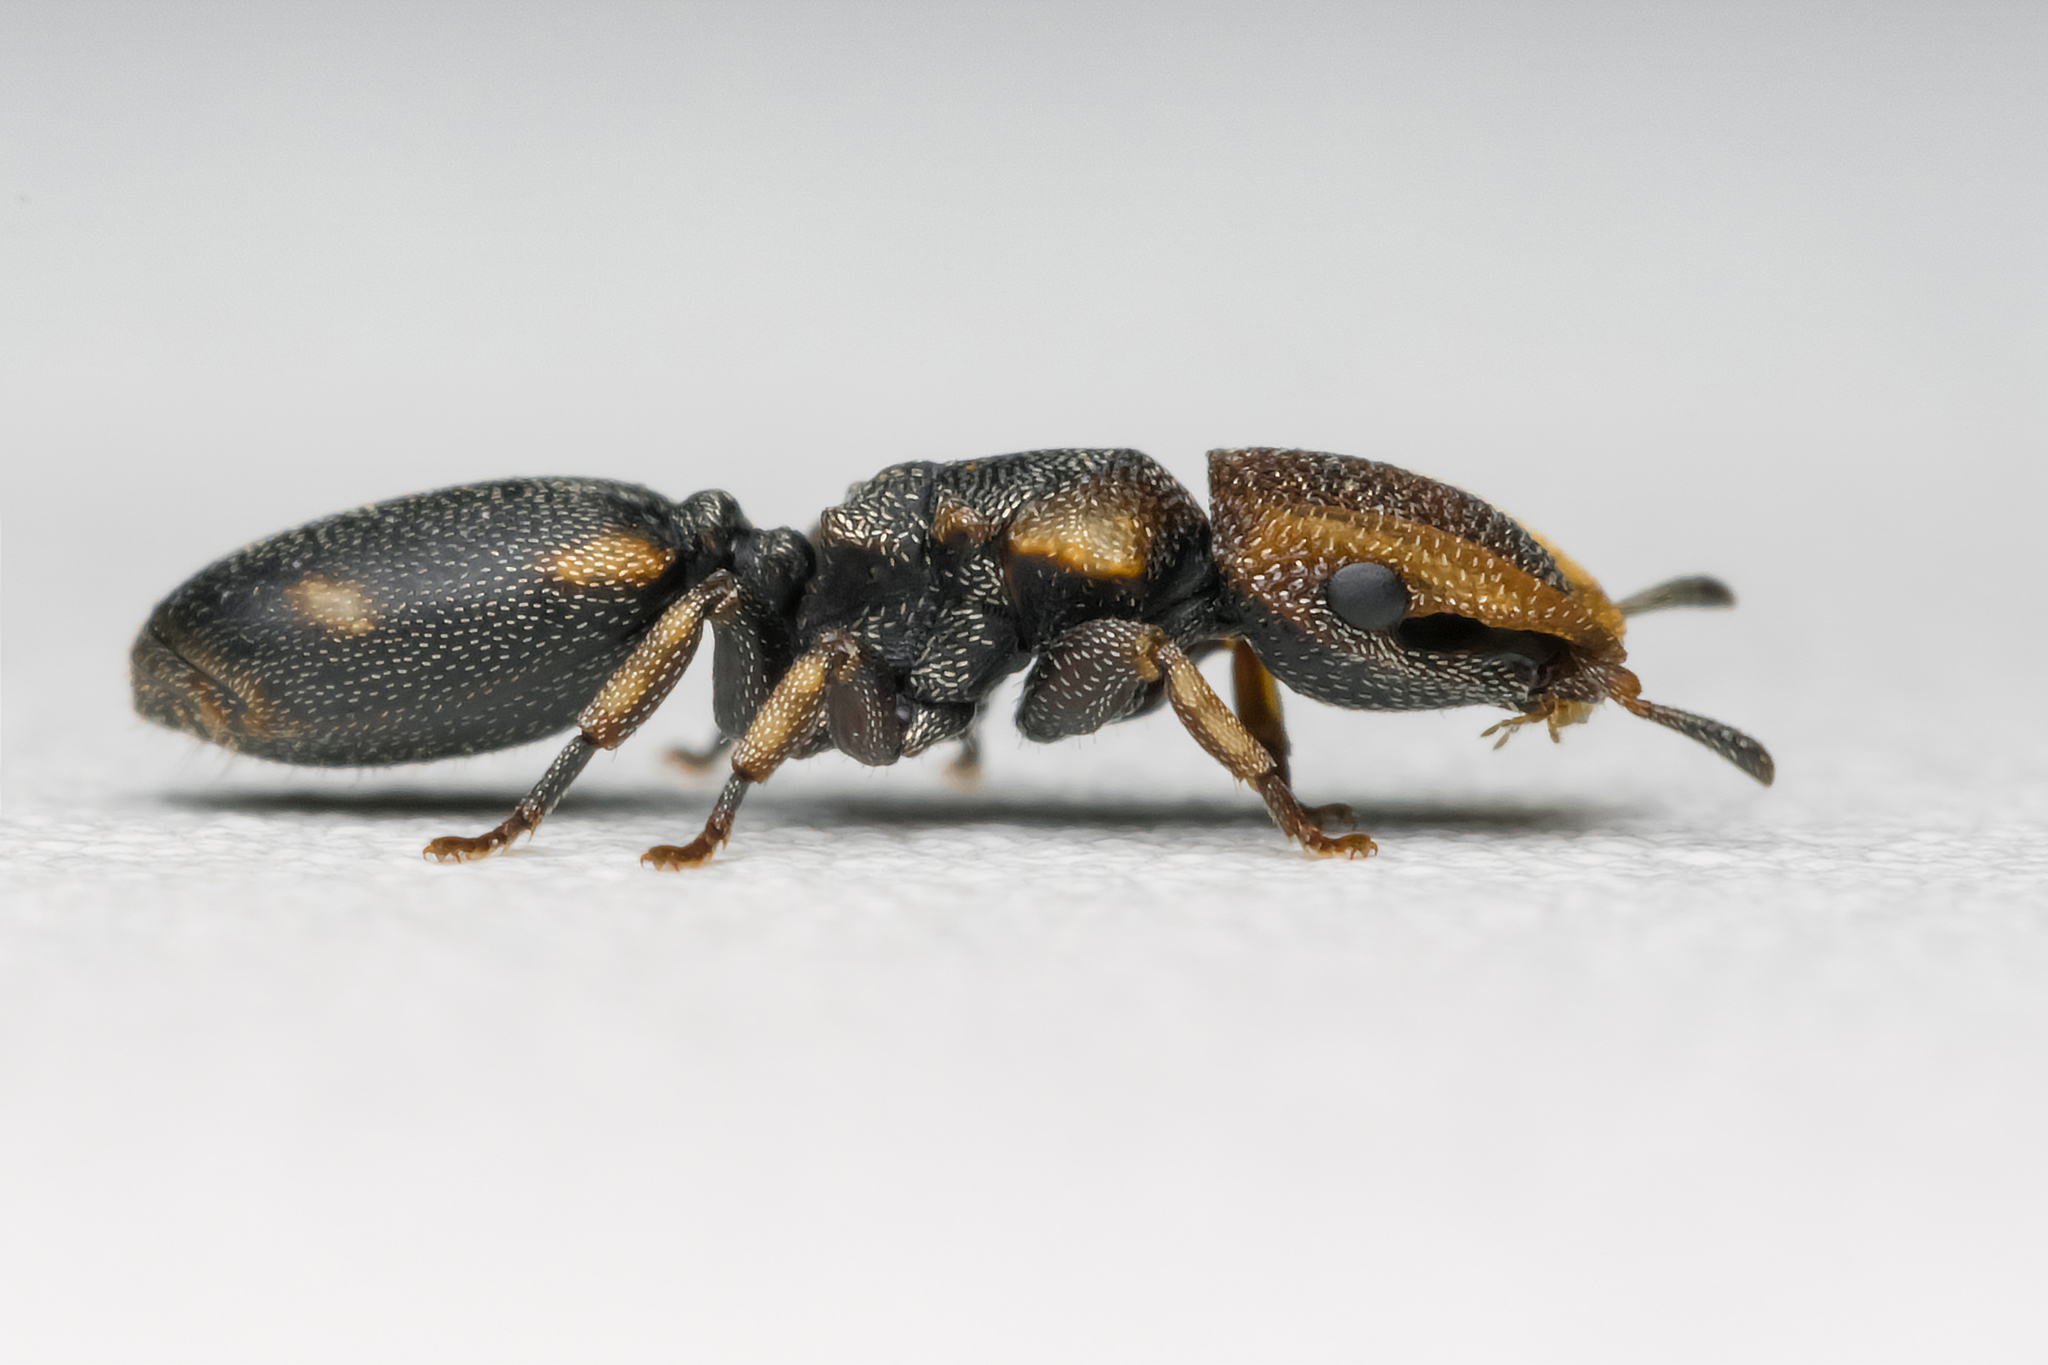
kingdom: Animalia
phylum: Arthropoda
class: Insecta
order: Hymenoptera
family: Formicidae
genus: Cephalotes
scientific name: Cephalotes fossithorax
